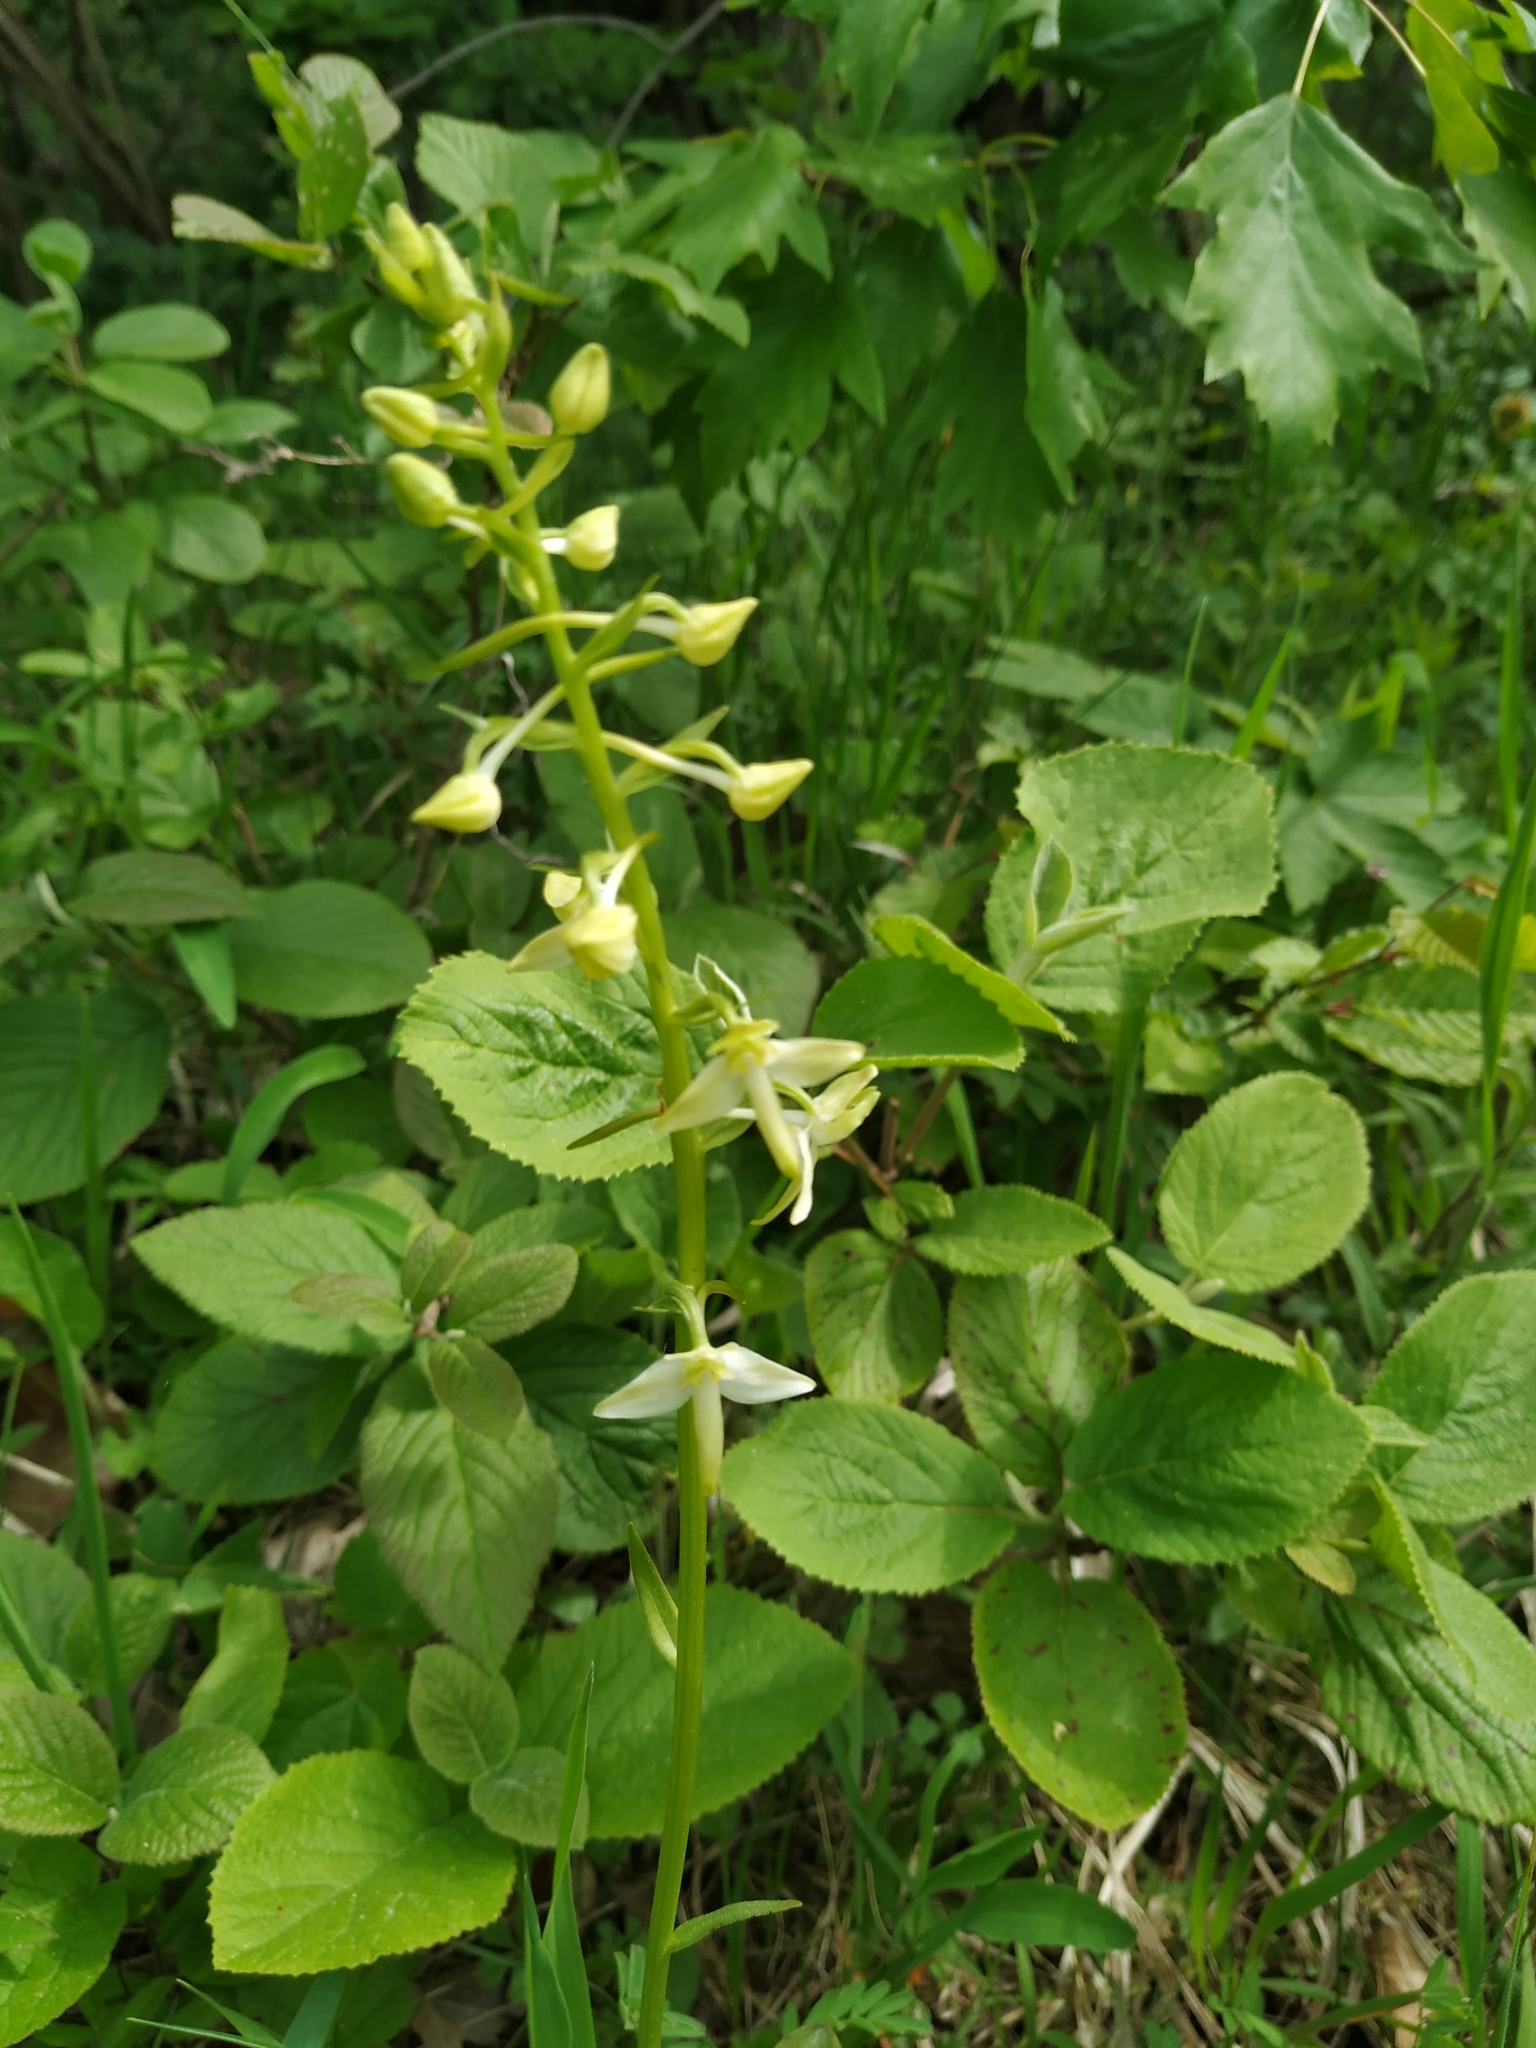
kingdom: Plantae
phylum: Tracheophyta
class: Liliopsida
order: Asparagales
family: Orchidaceae
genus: Platanthera
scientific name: Platanthera chlorantha
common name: Greater butterfly-orchid
